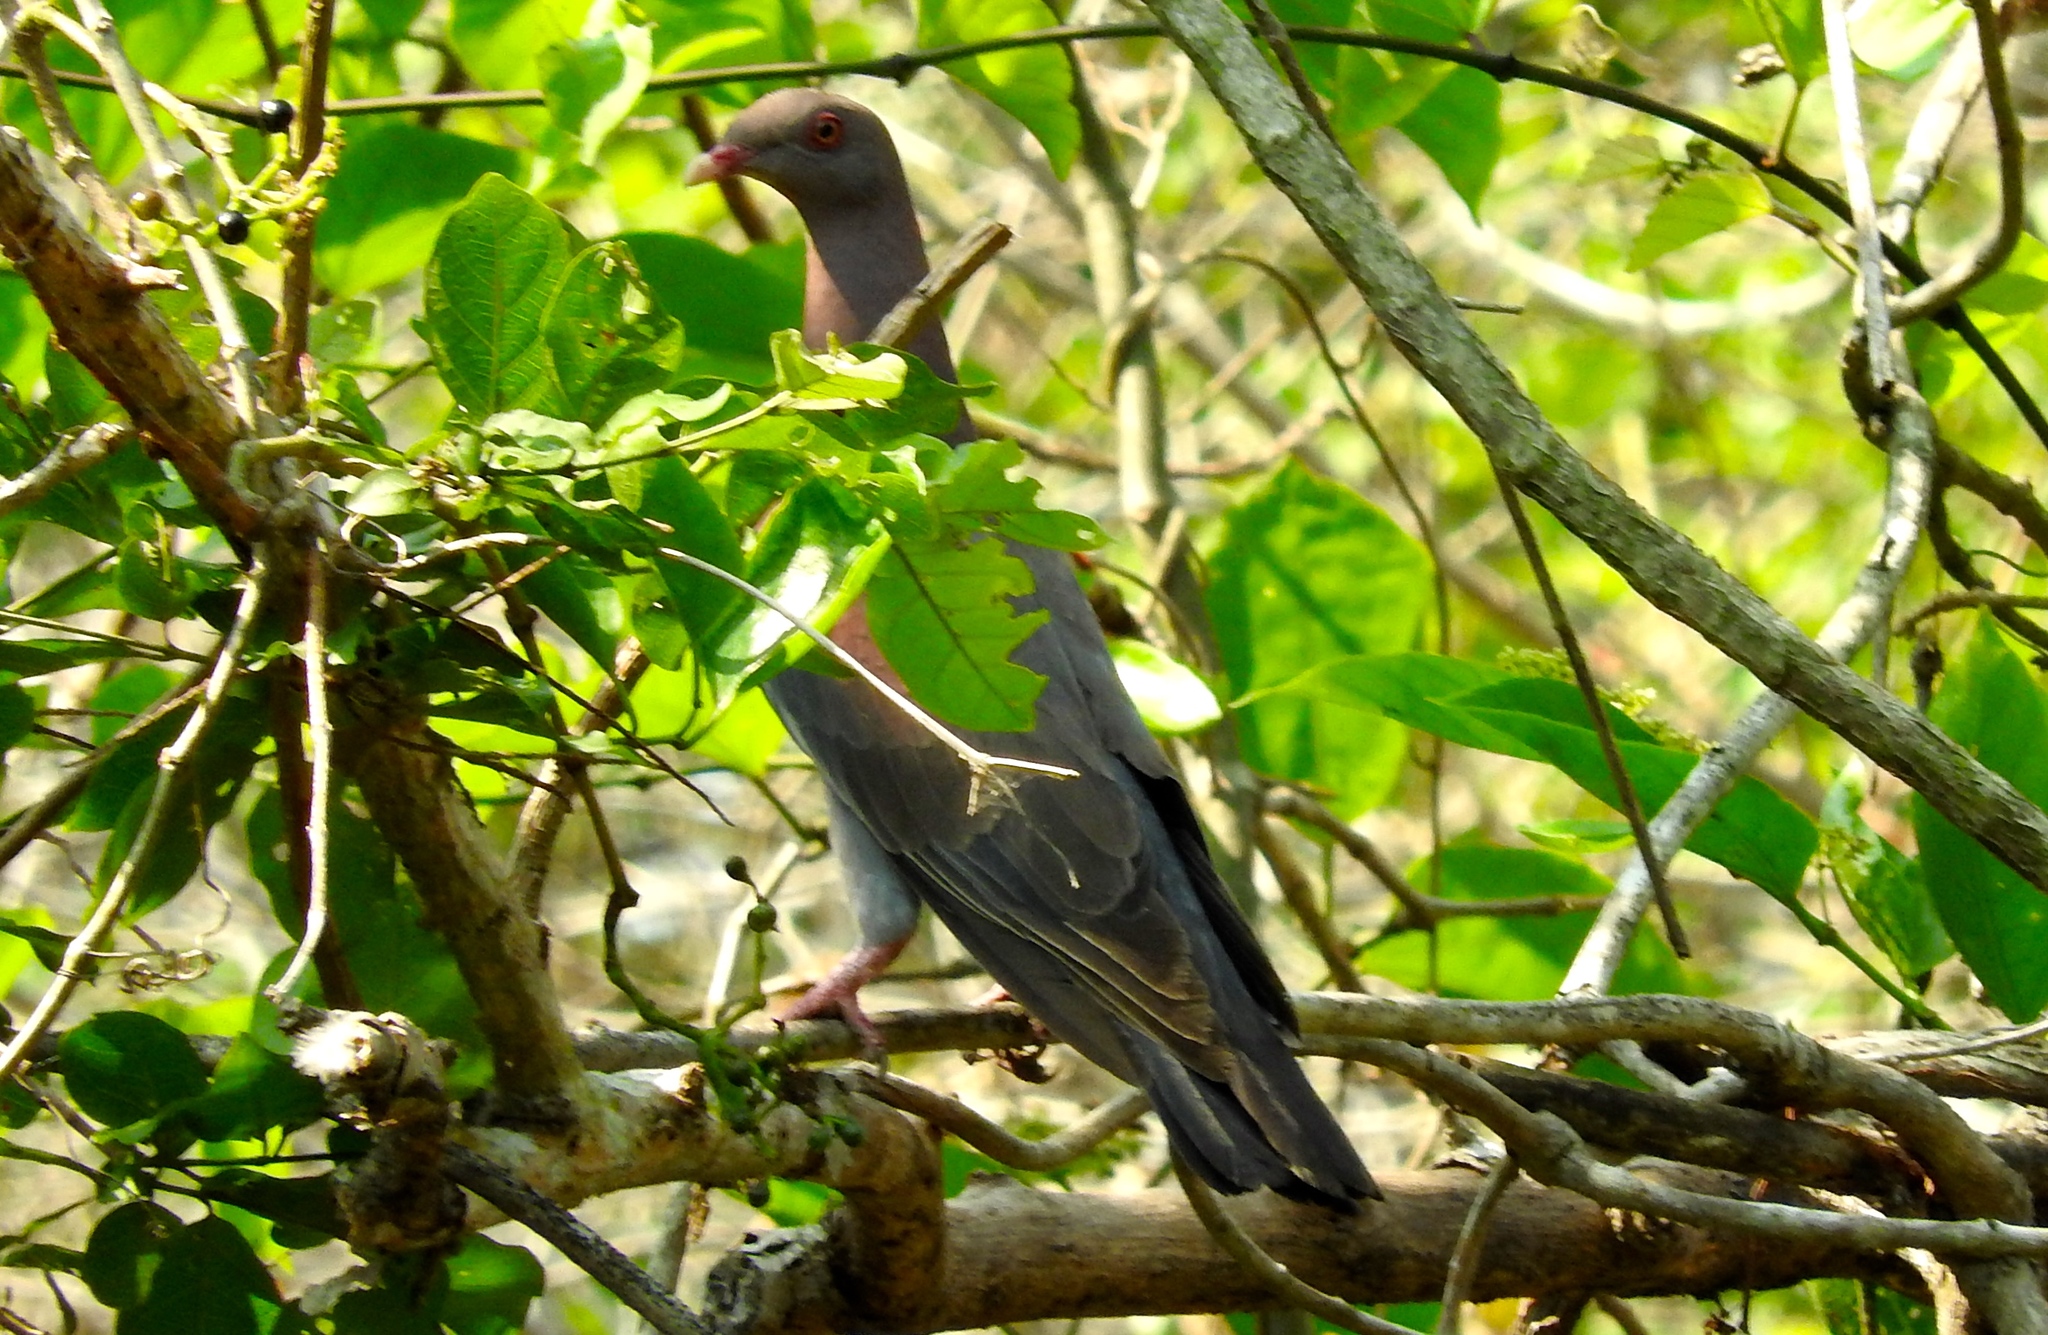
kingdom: Animalia
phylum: Chordata
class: Aves
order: Columbiformes
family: Columbidae
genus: Patagioenas
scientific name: Patagioenas flavirostris
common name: Red-billed pigeon
